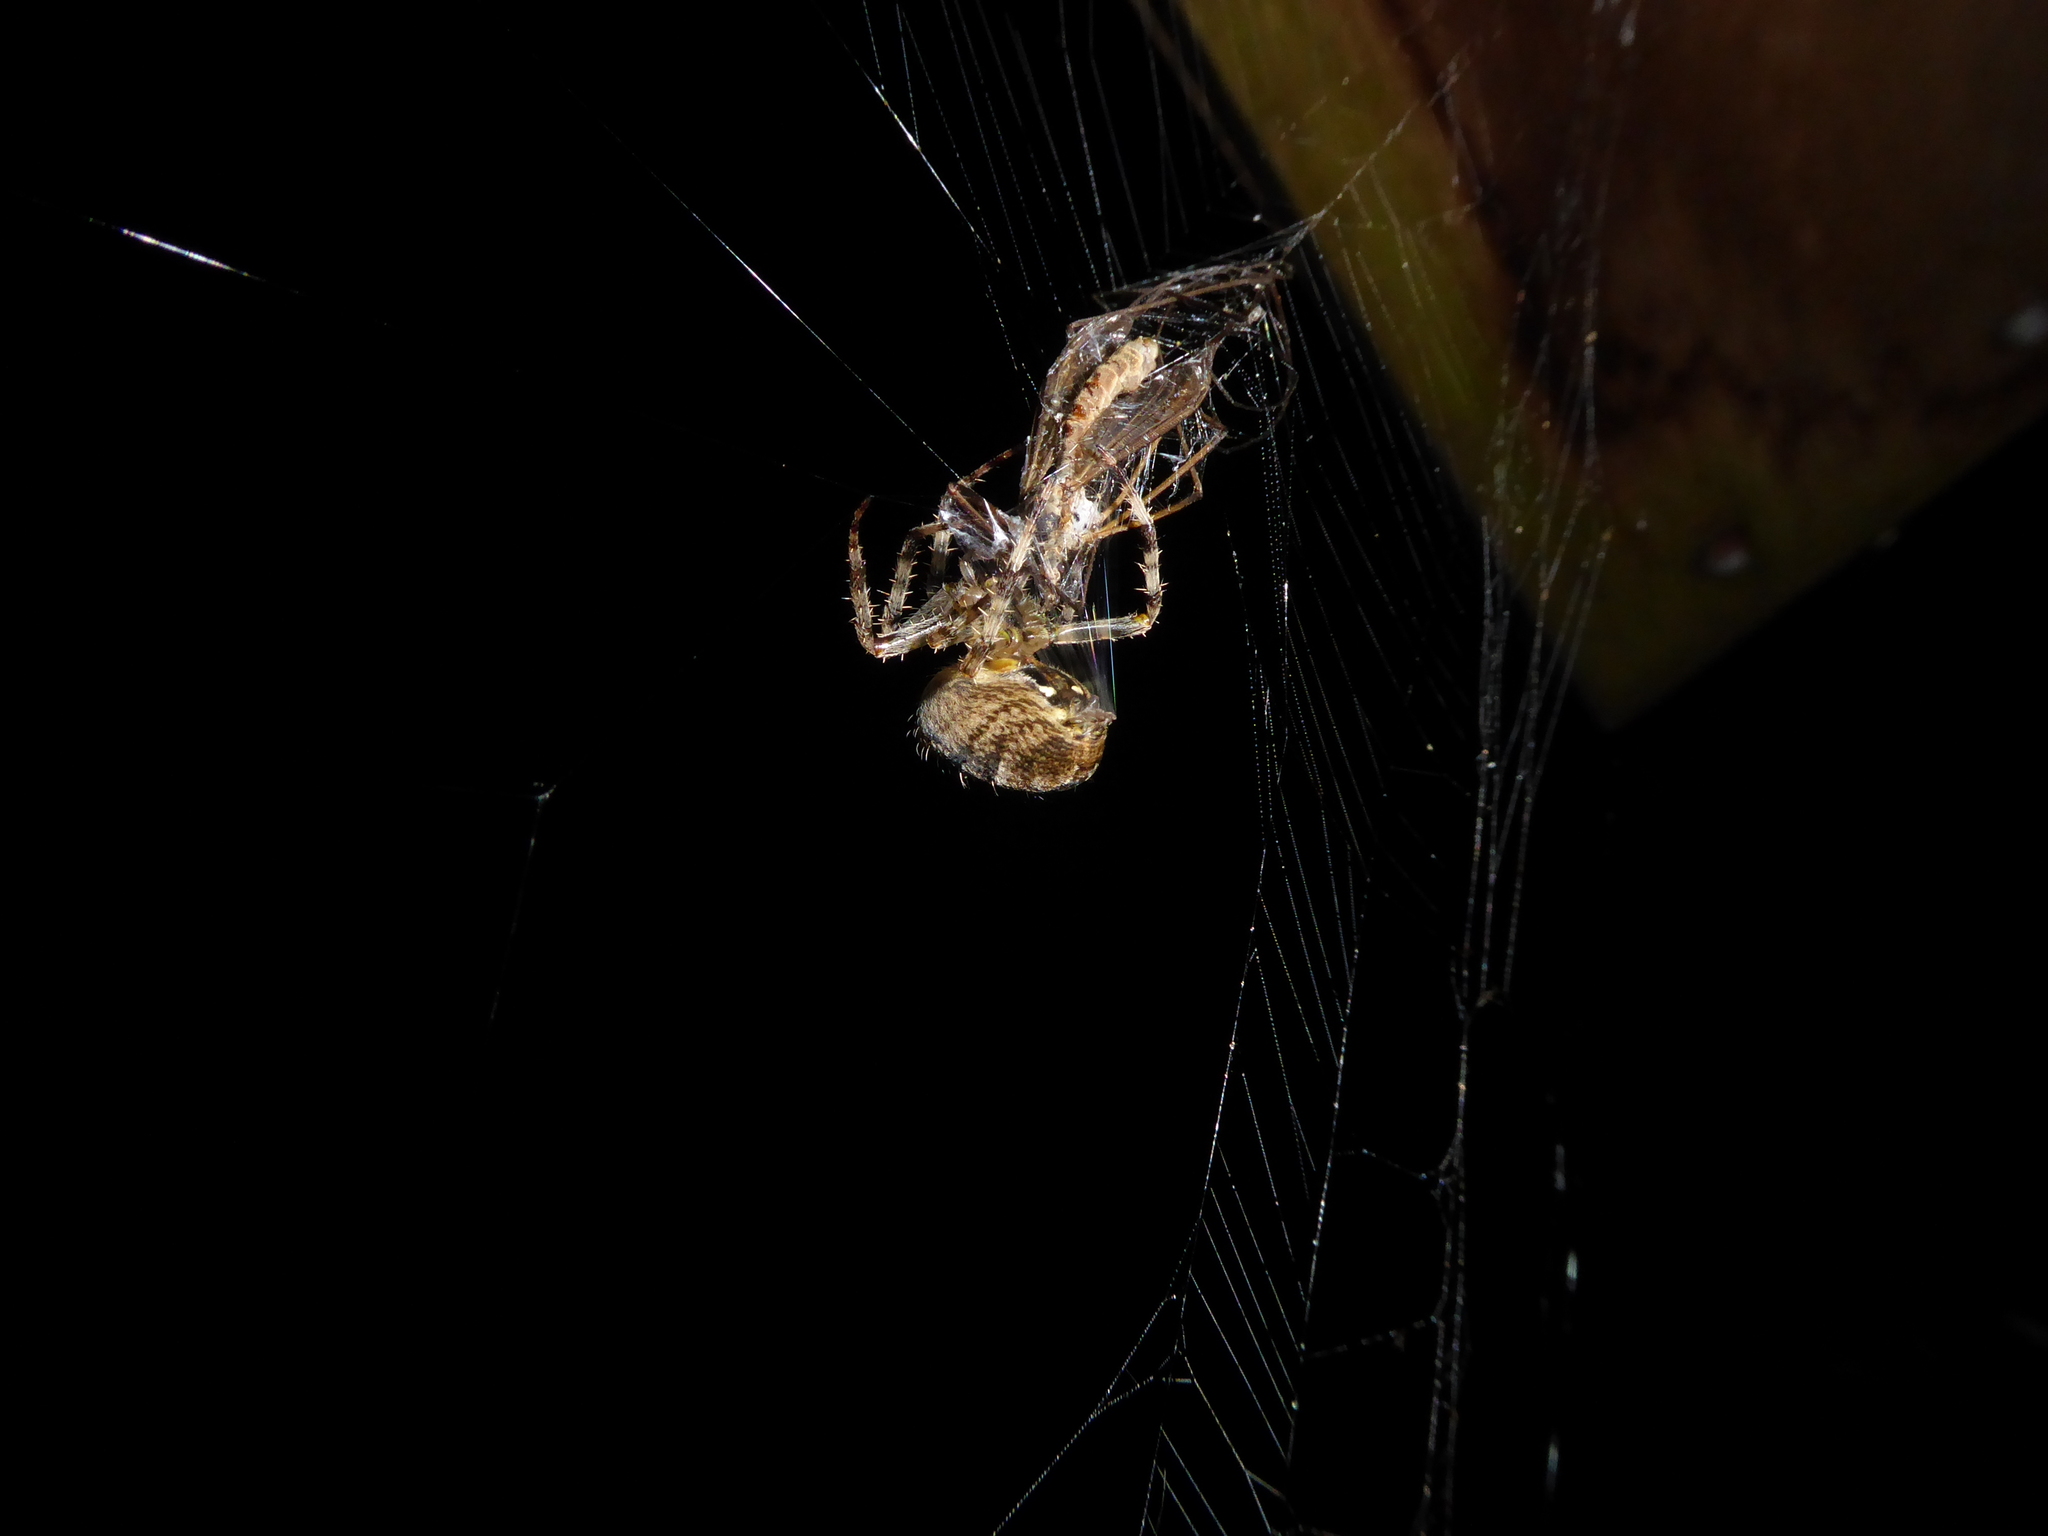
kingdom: Animalia
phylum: Arthropoda
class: Arachnida
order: Araneae
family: Araneidae
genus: Araneus
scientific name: Araneus diadematus
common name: Cross orbweaver
